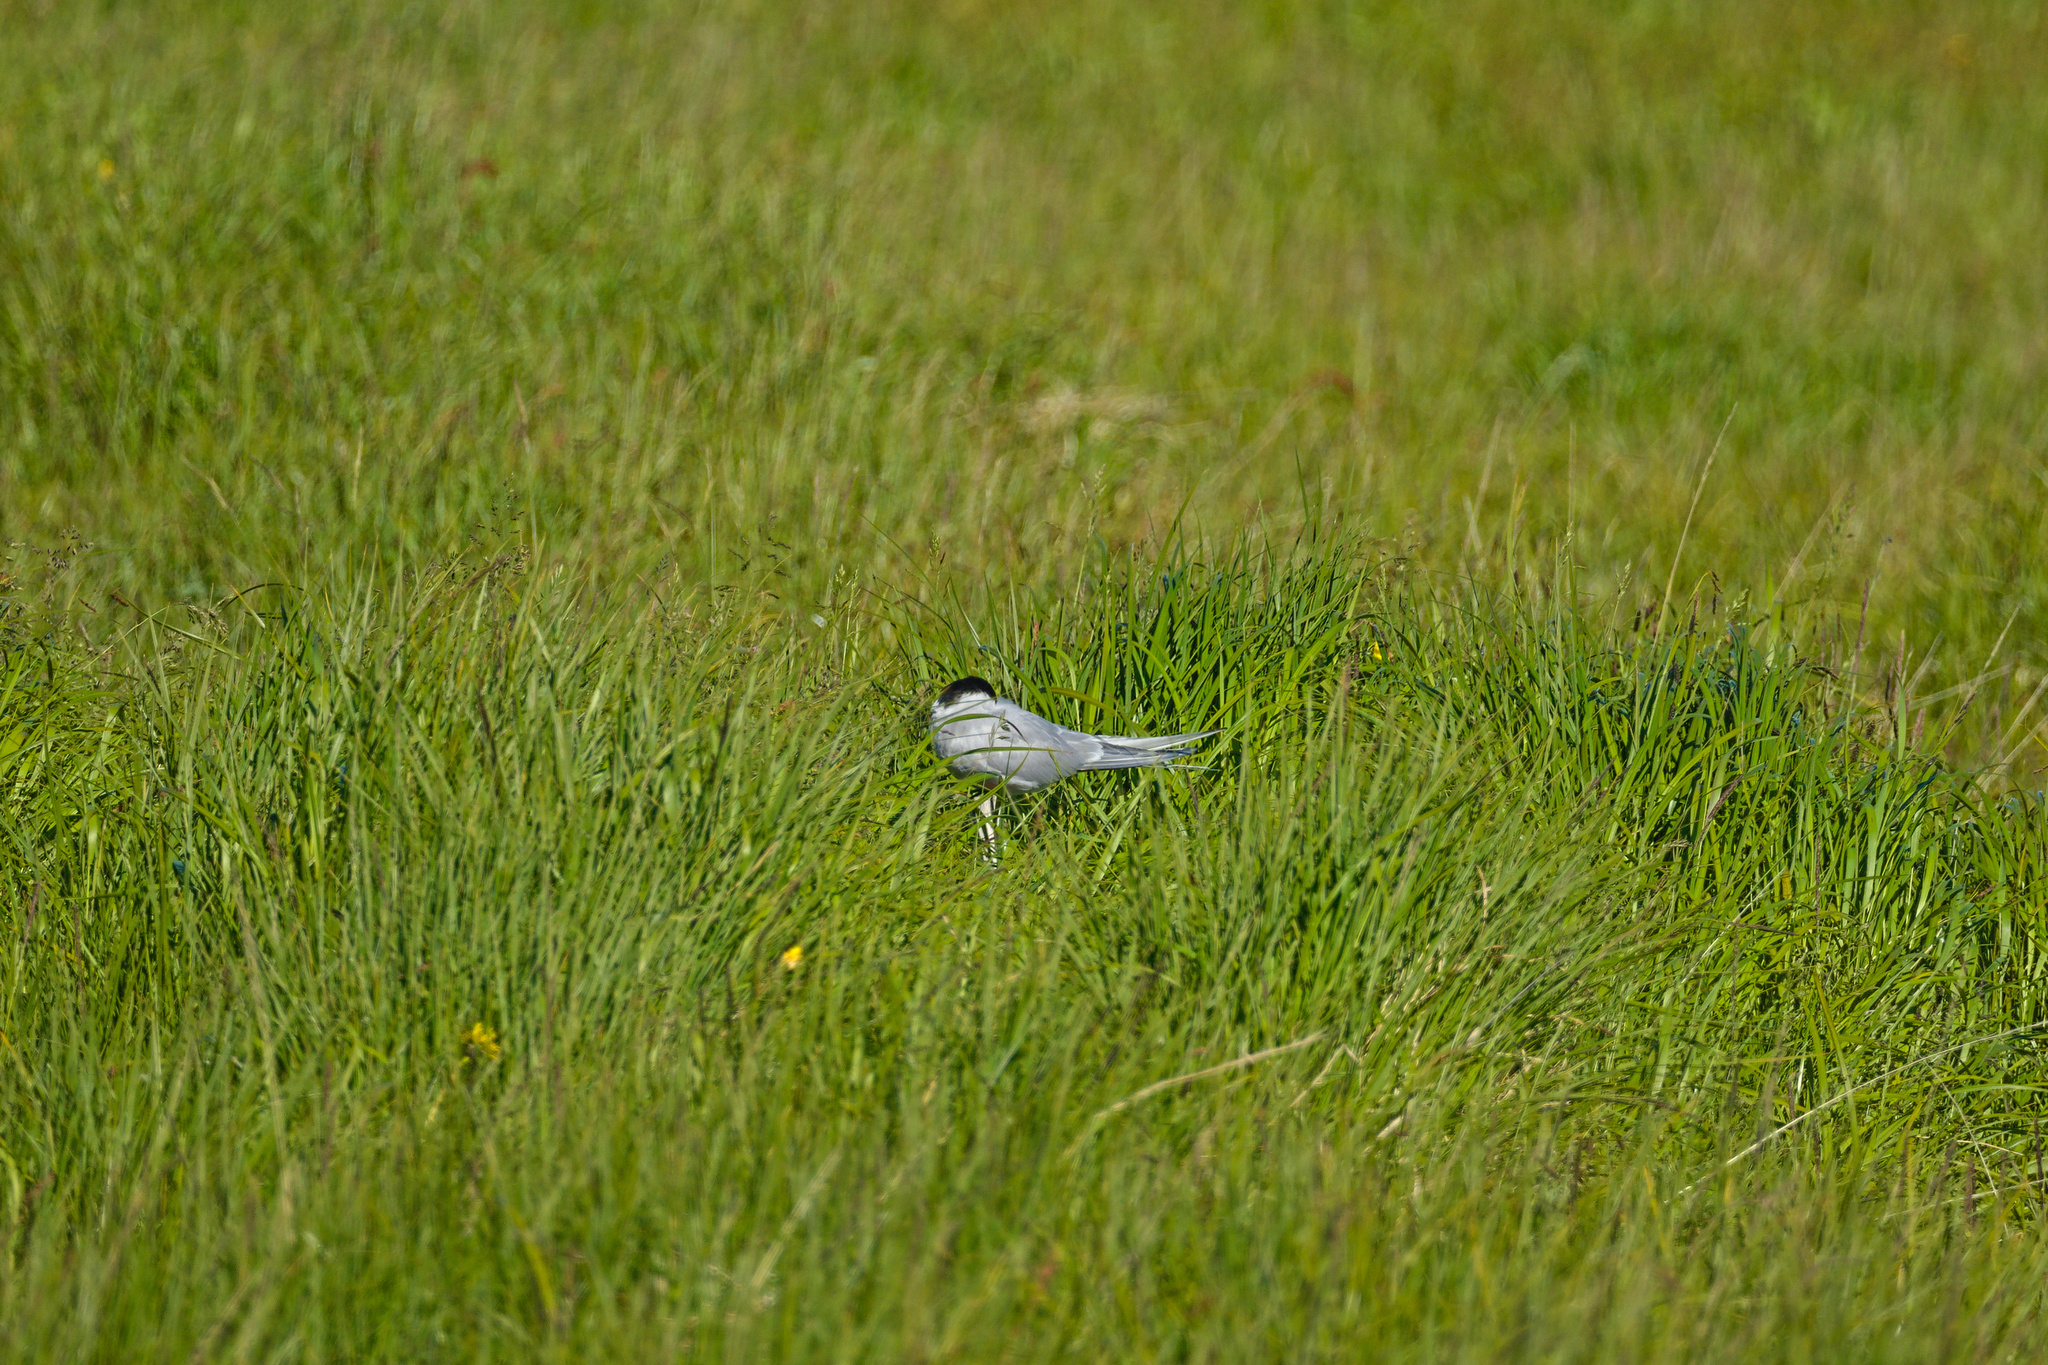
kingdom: Animalia
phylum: Chordata
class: Aves
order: Charadriiformes
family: Laridae
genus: Sterna
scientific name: Sterna paradisaea
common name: Arctic tern
